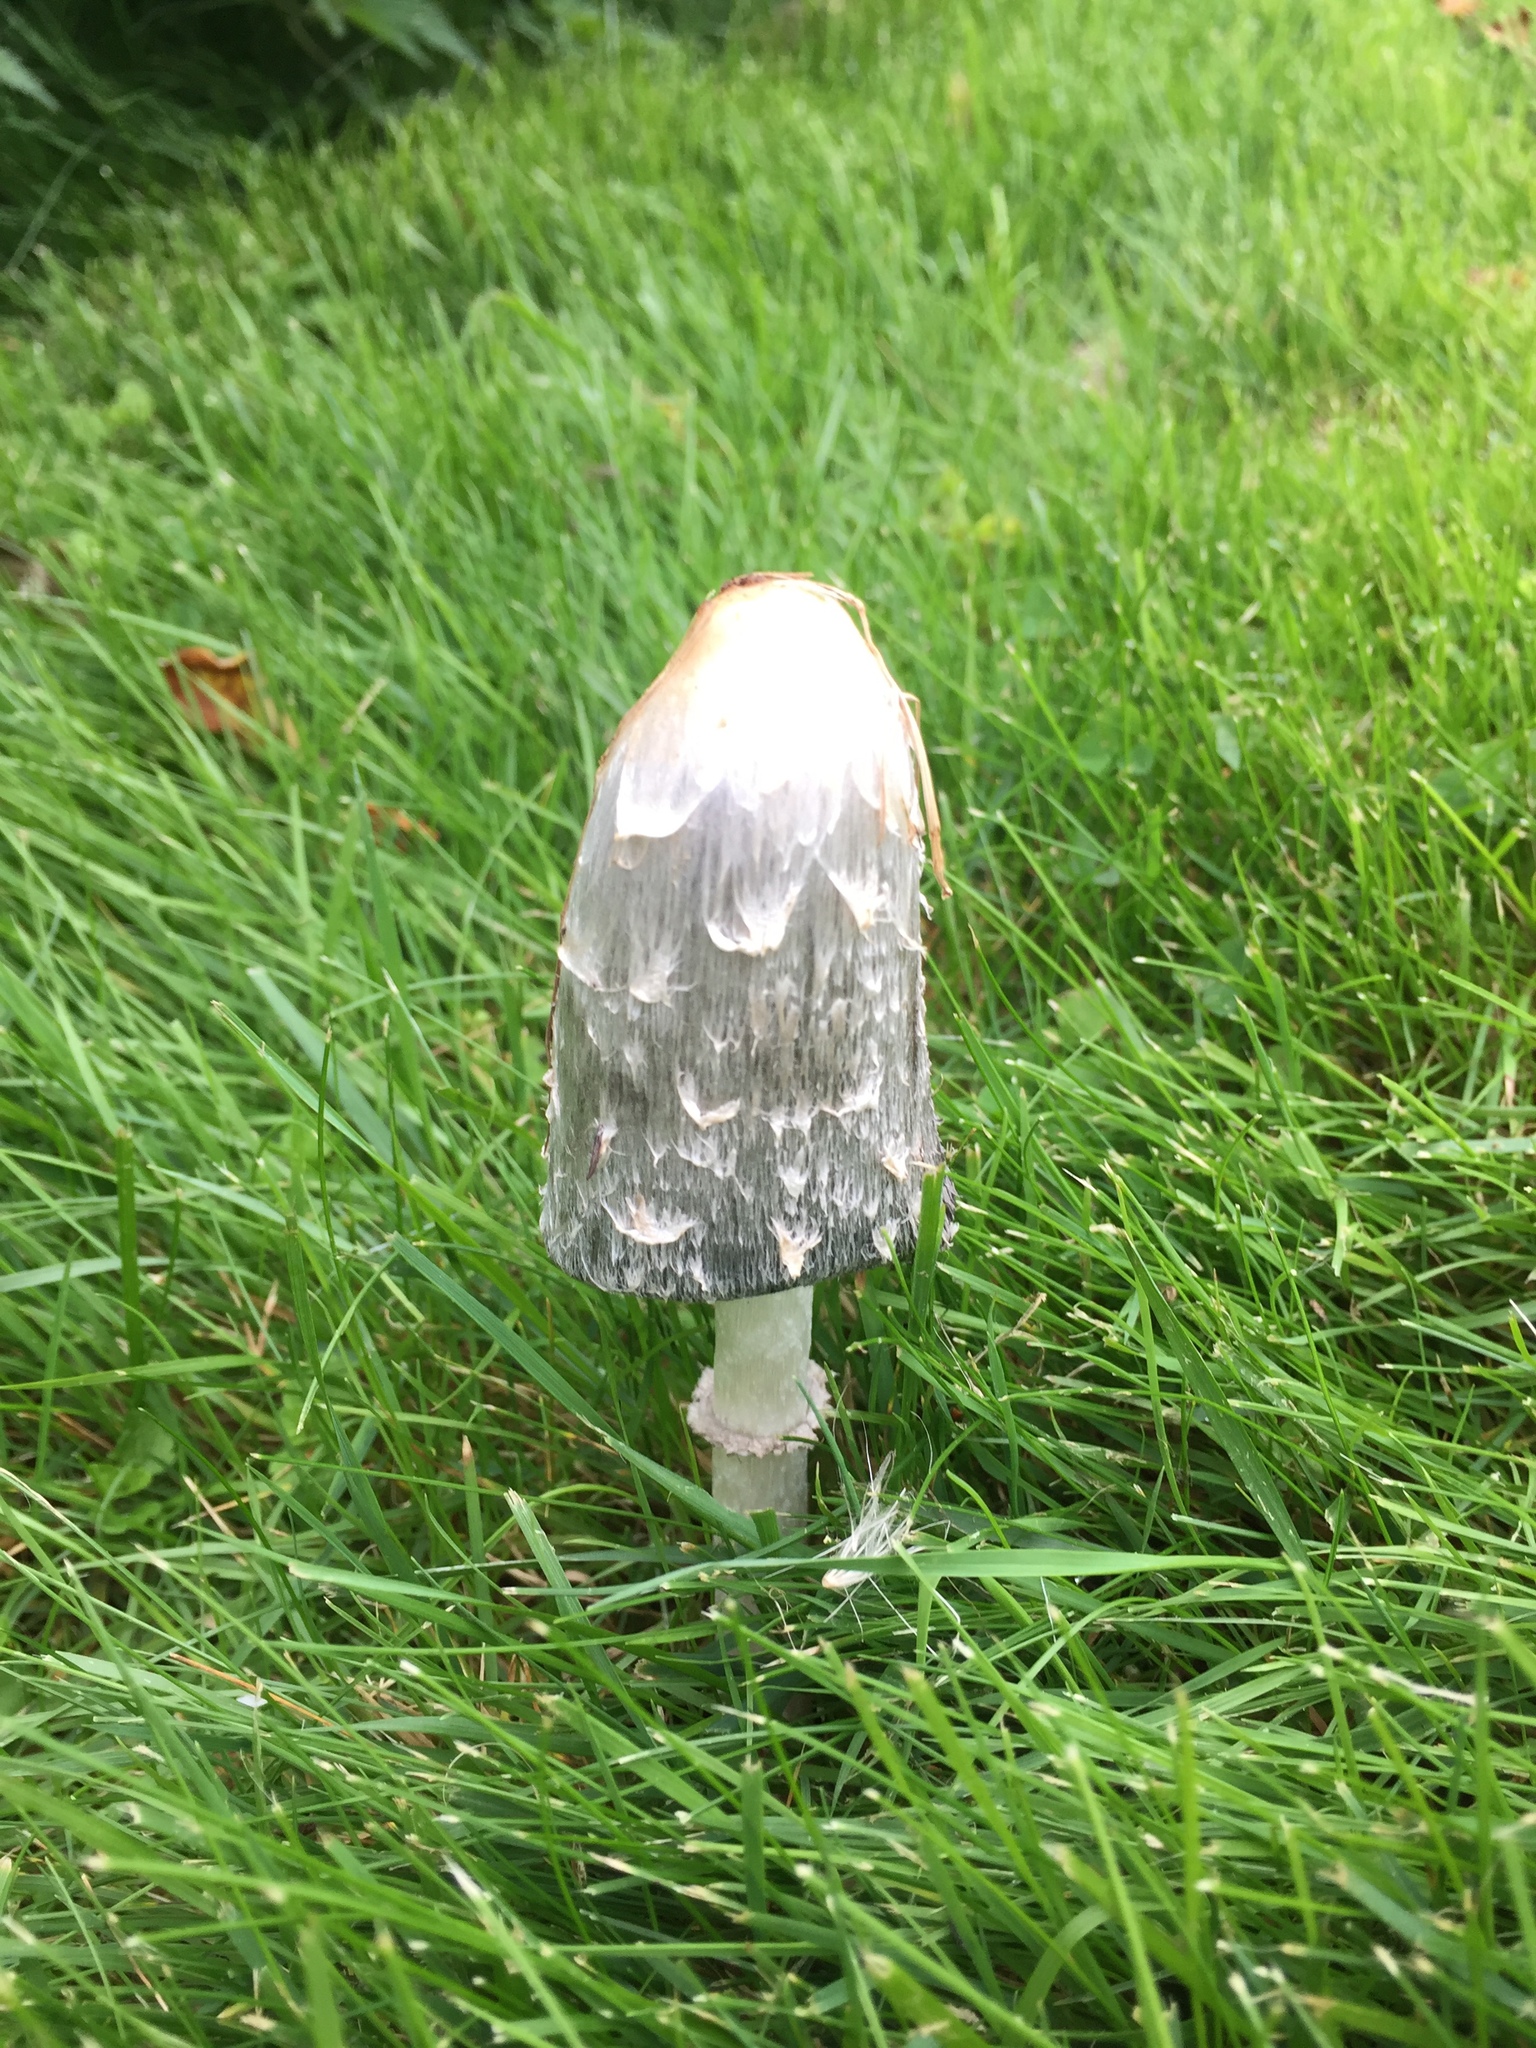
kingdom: Fungi
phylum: Basidiomycota
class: Agaricomycetes
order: Agaricales
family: Agaricaceae
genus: Coprinus
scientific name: Coprinus comatus
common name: Lawyer's wig
